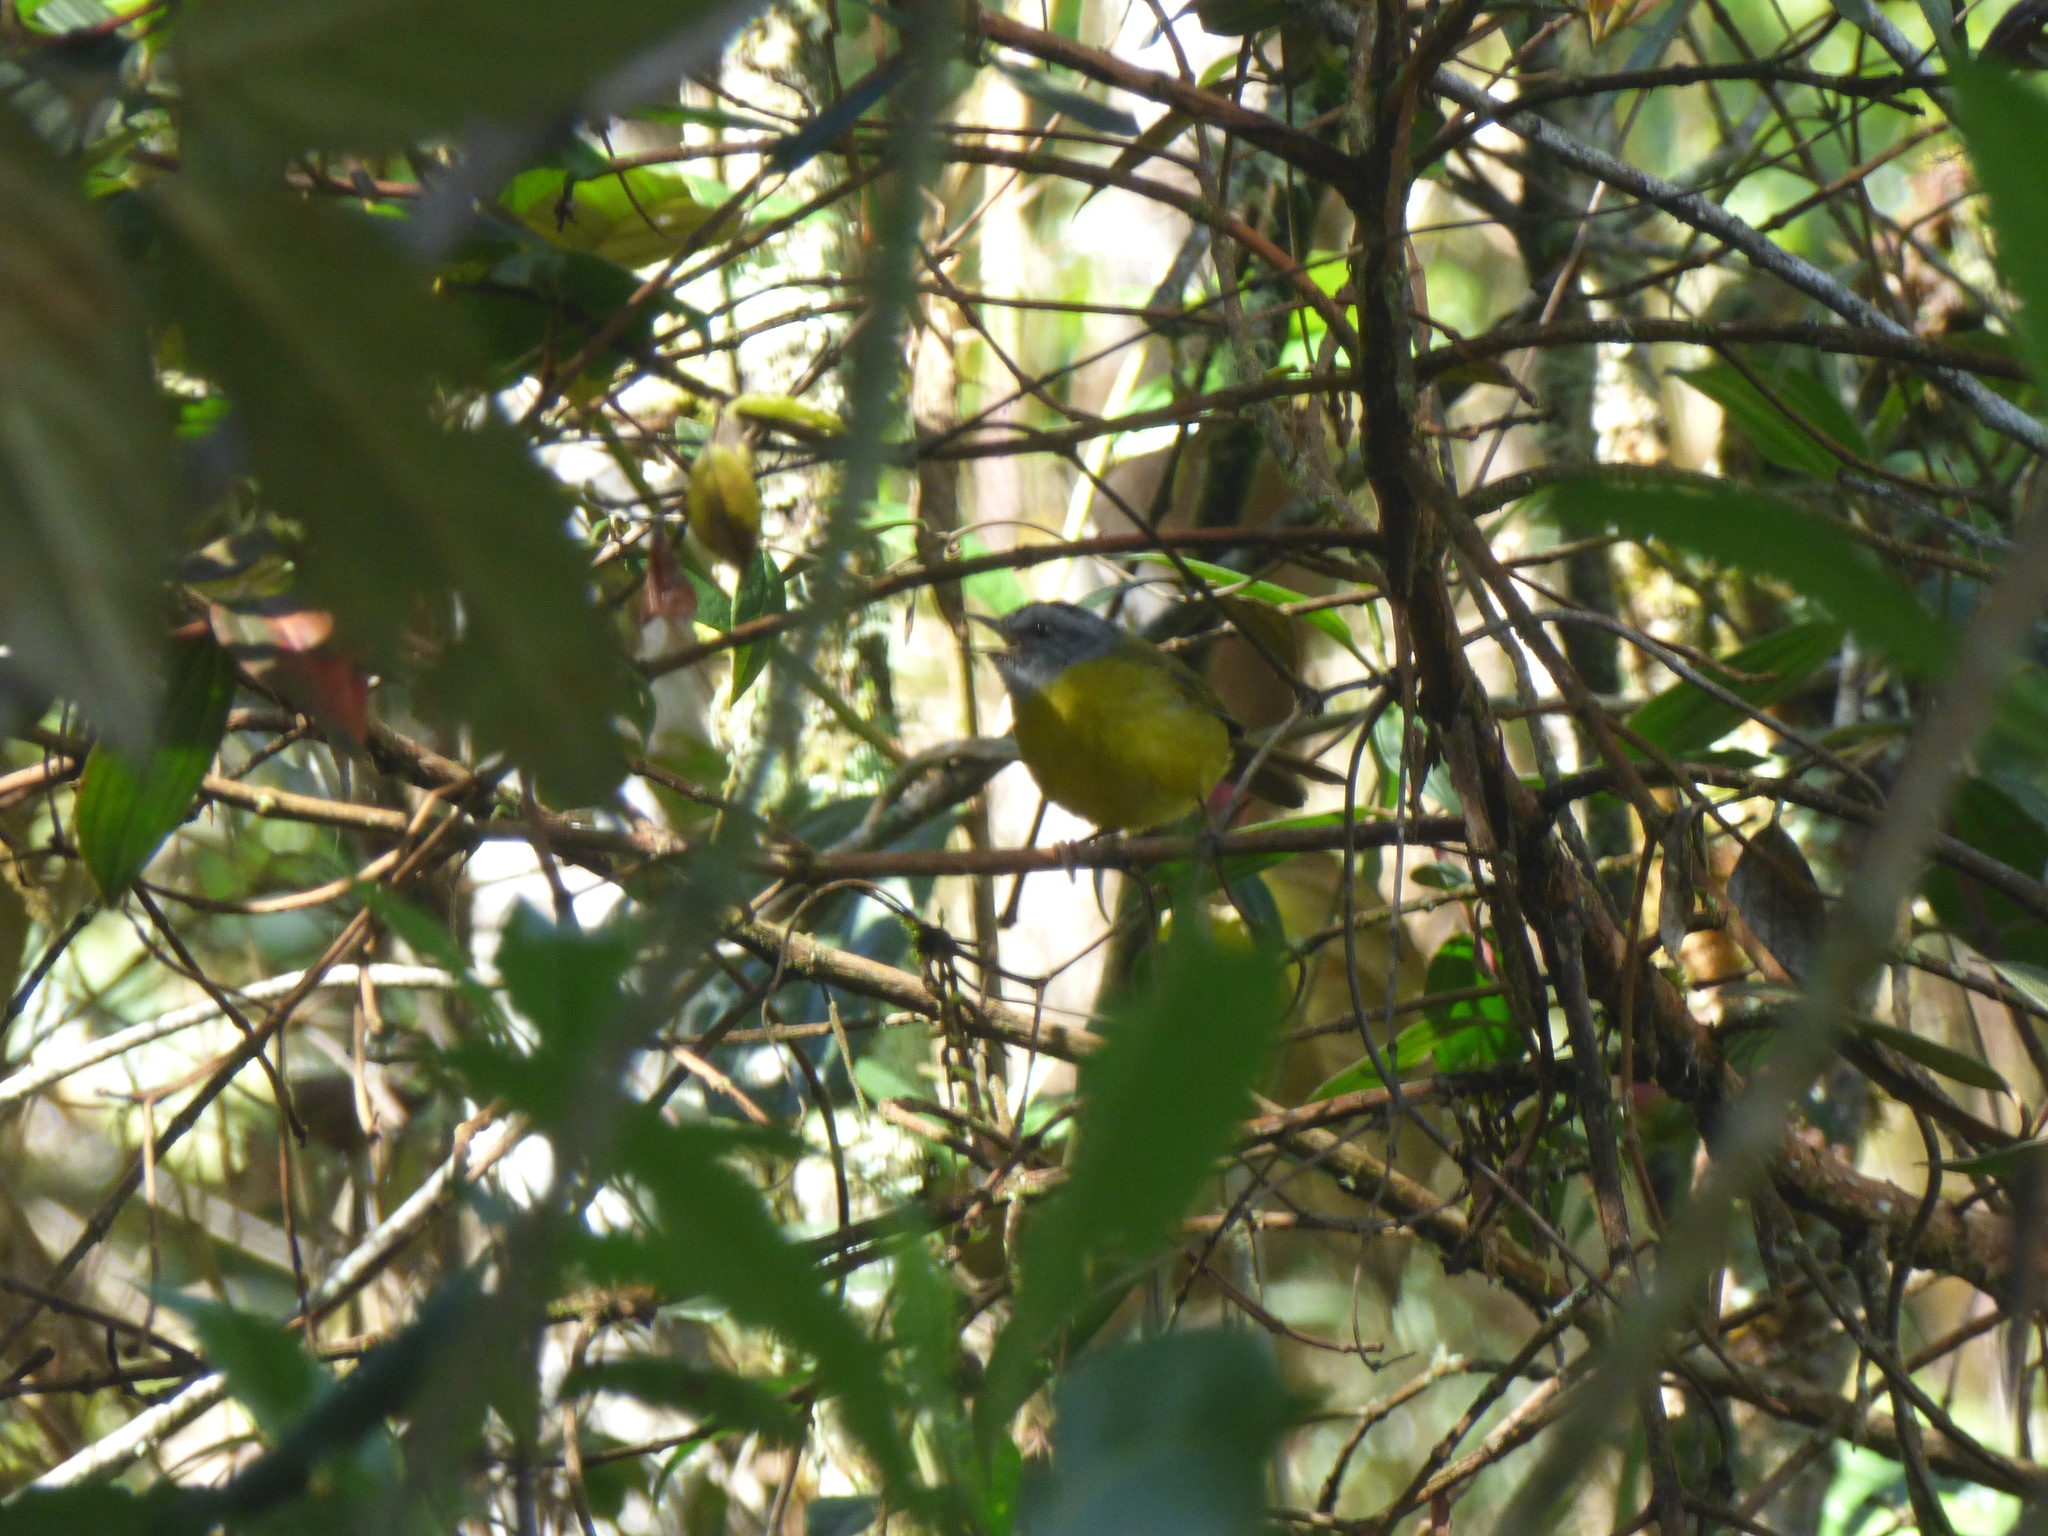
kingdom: Animalia
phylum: Chordata
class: Aves
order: Passeriformes
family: Parulidae
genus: Myiothlypis
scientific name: Myiothlypis coronata
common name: Russet-crowned warbler
